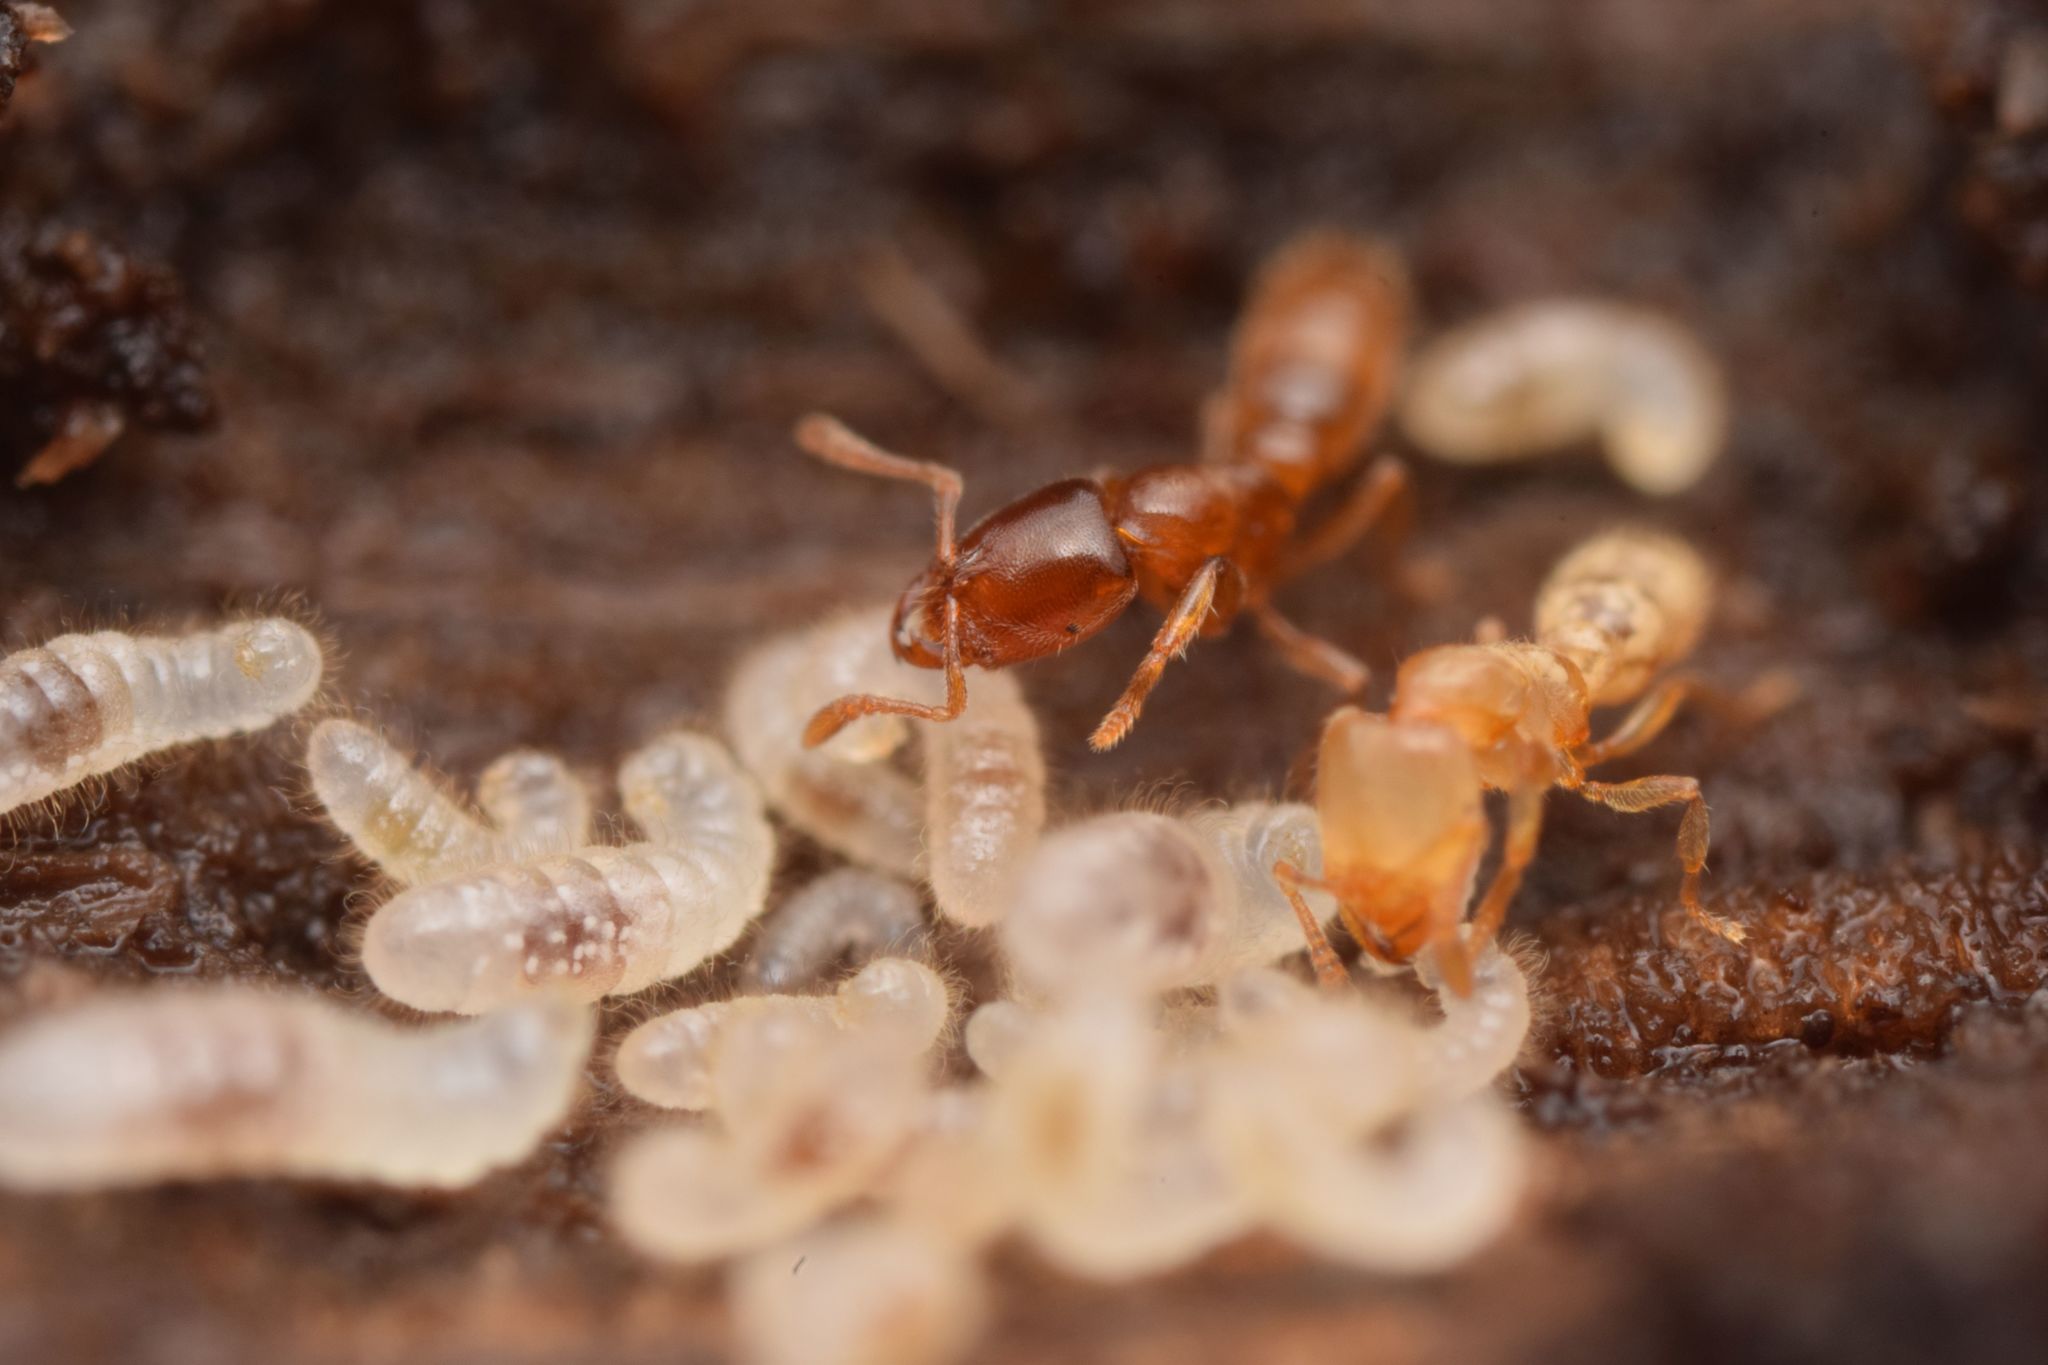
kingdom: Animalia
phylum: Arthropoda
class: Insecta
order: Hymenoptera
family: Formicidae
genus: Prionopelta
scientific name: Prionopelta amabilis
